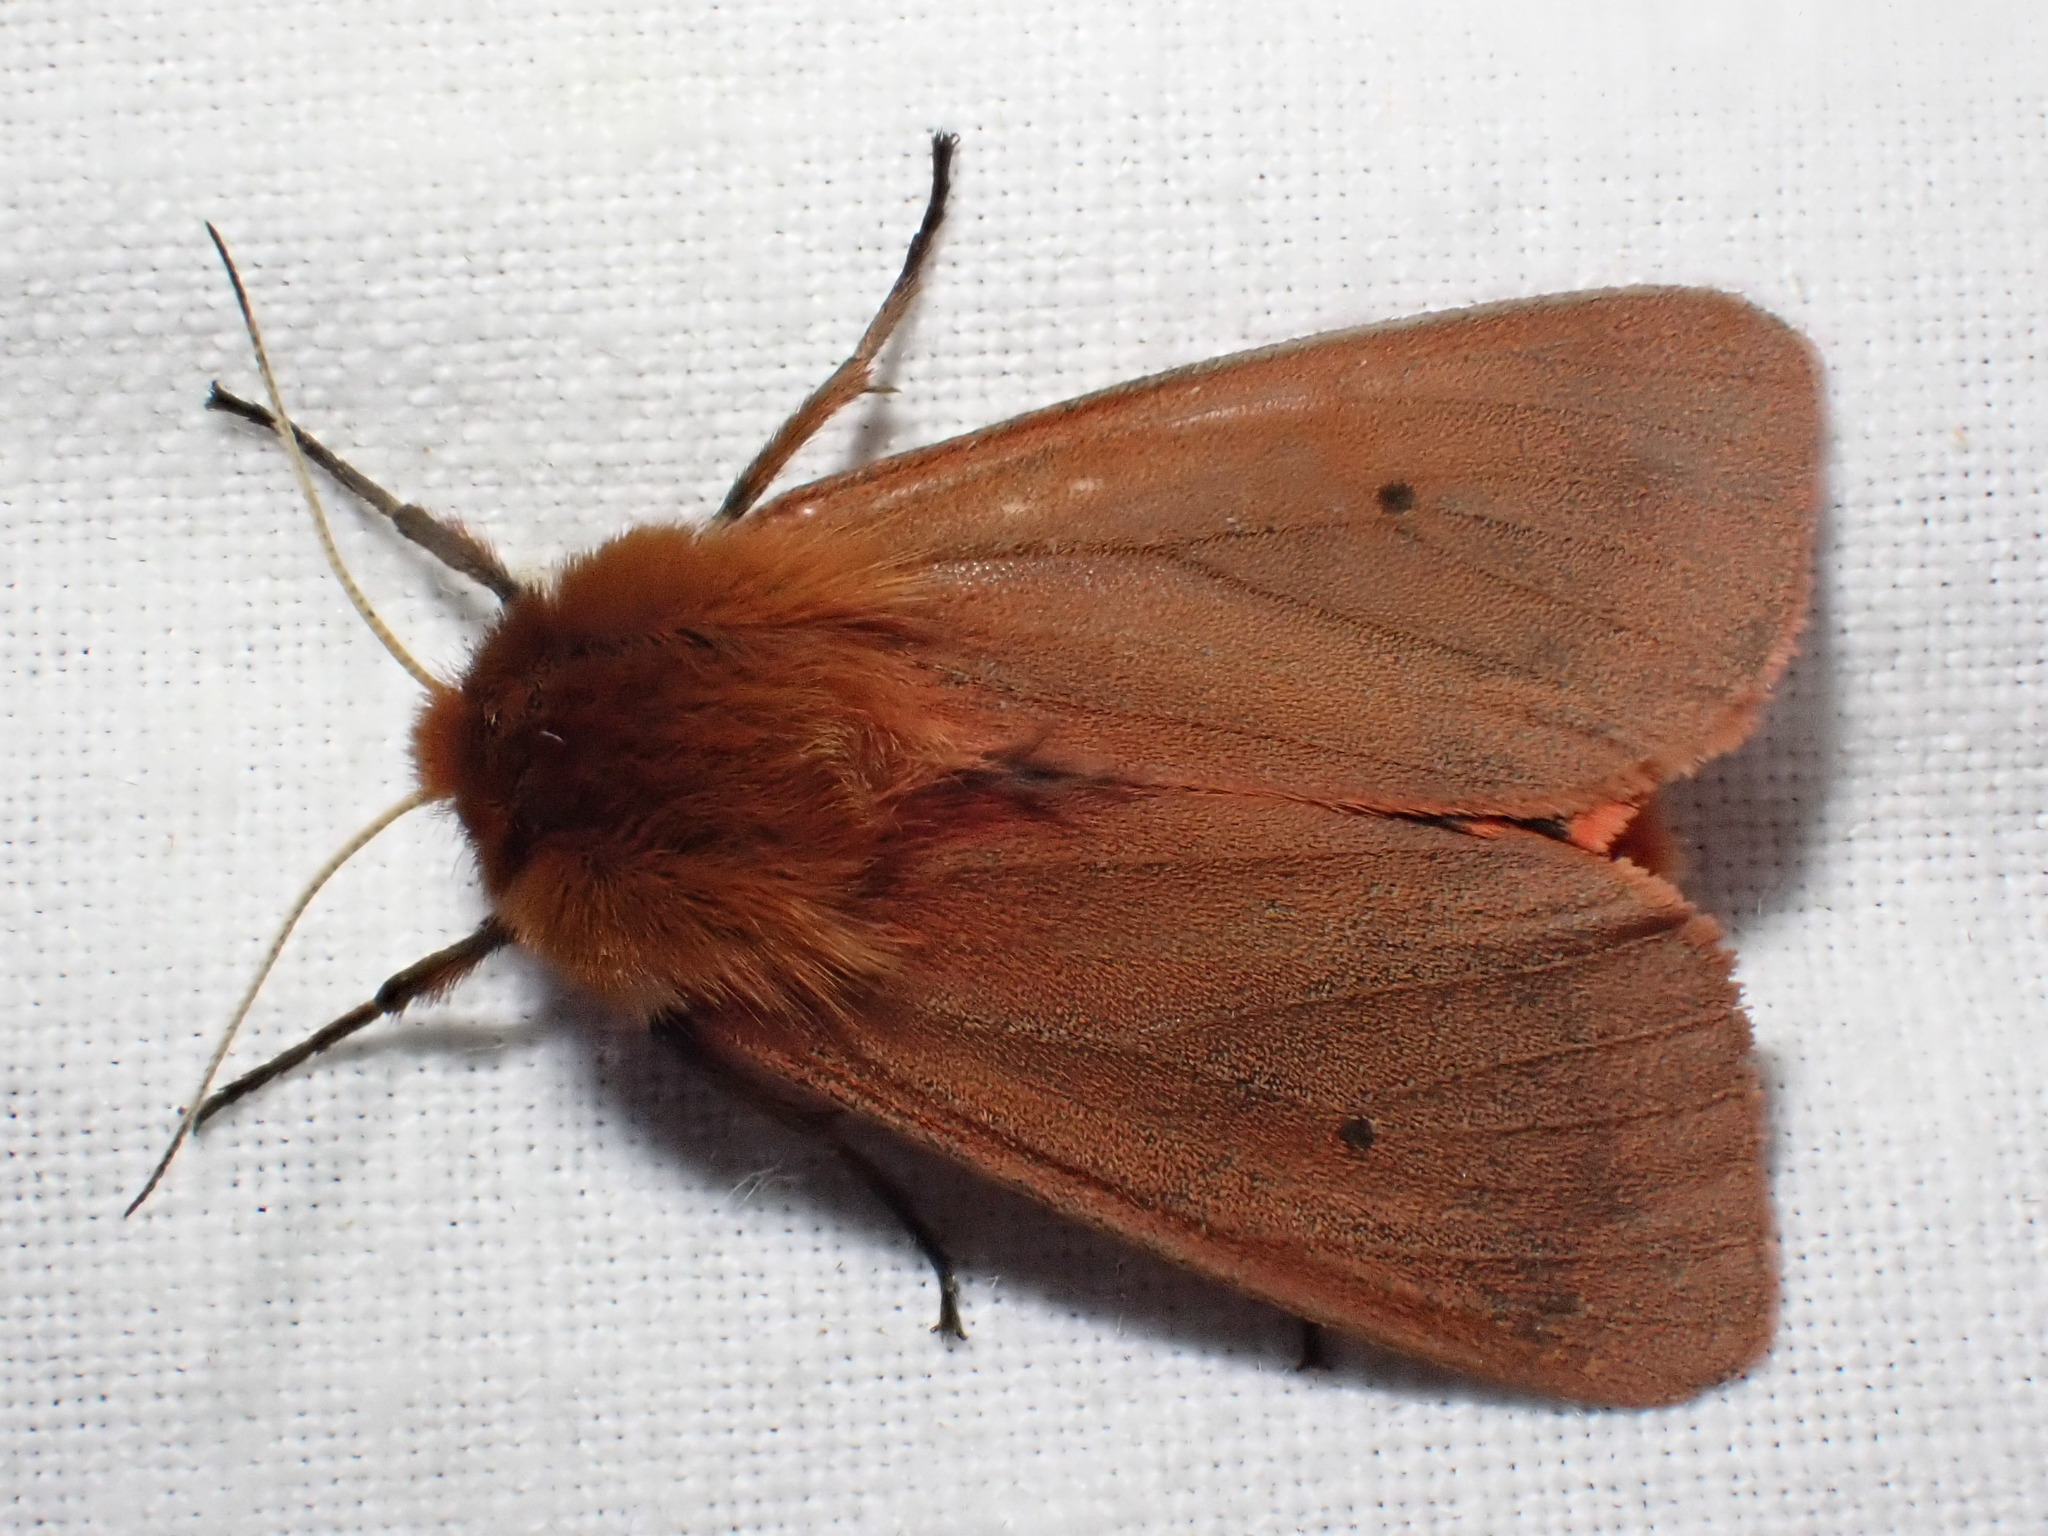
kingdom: Animalia
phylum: Arthropoda
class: Insecta
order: Lepidoptera
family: Erebidae
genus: Phragmatobia
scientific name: Phragmatobia fuliginosa
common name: Ruby tiger
